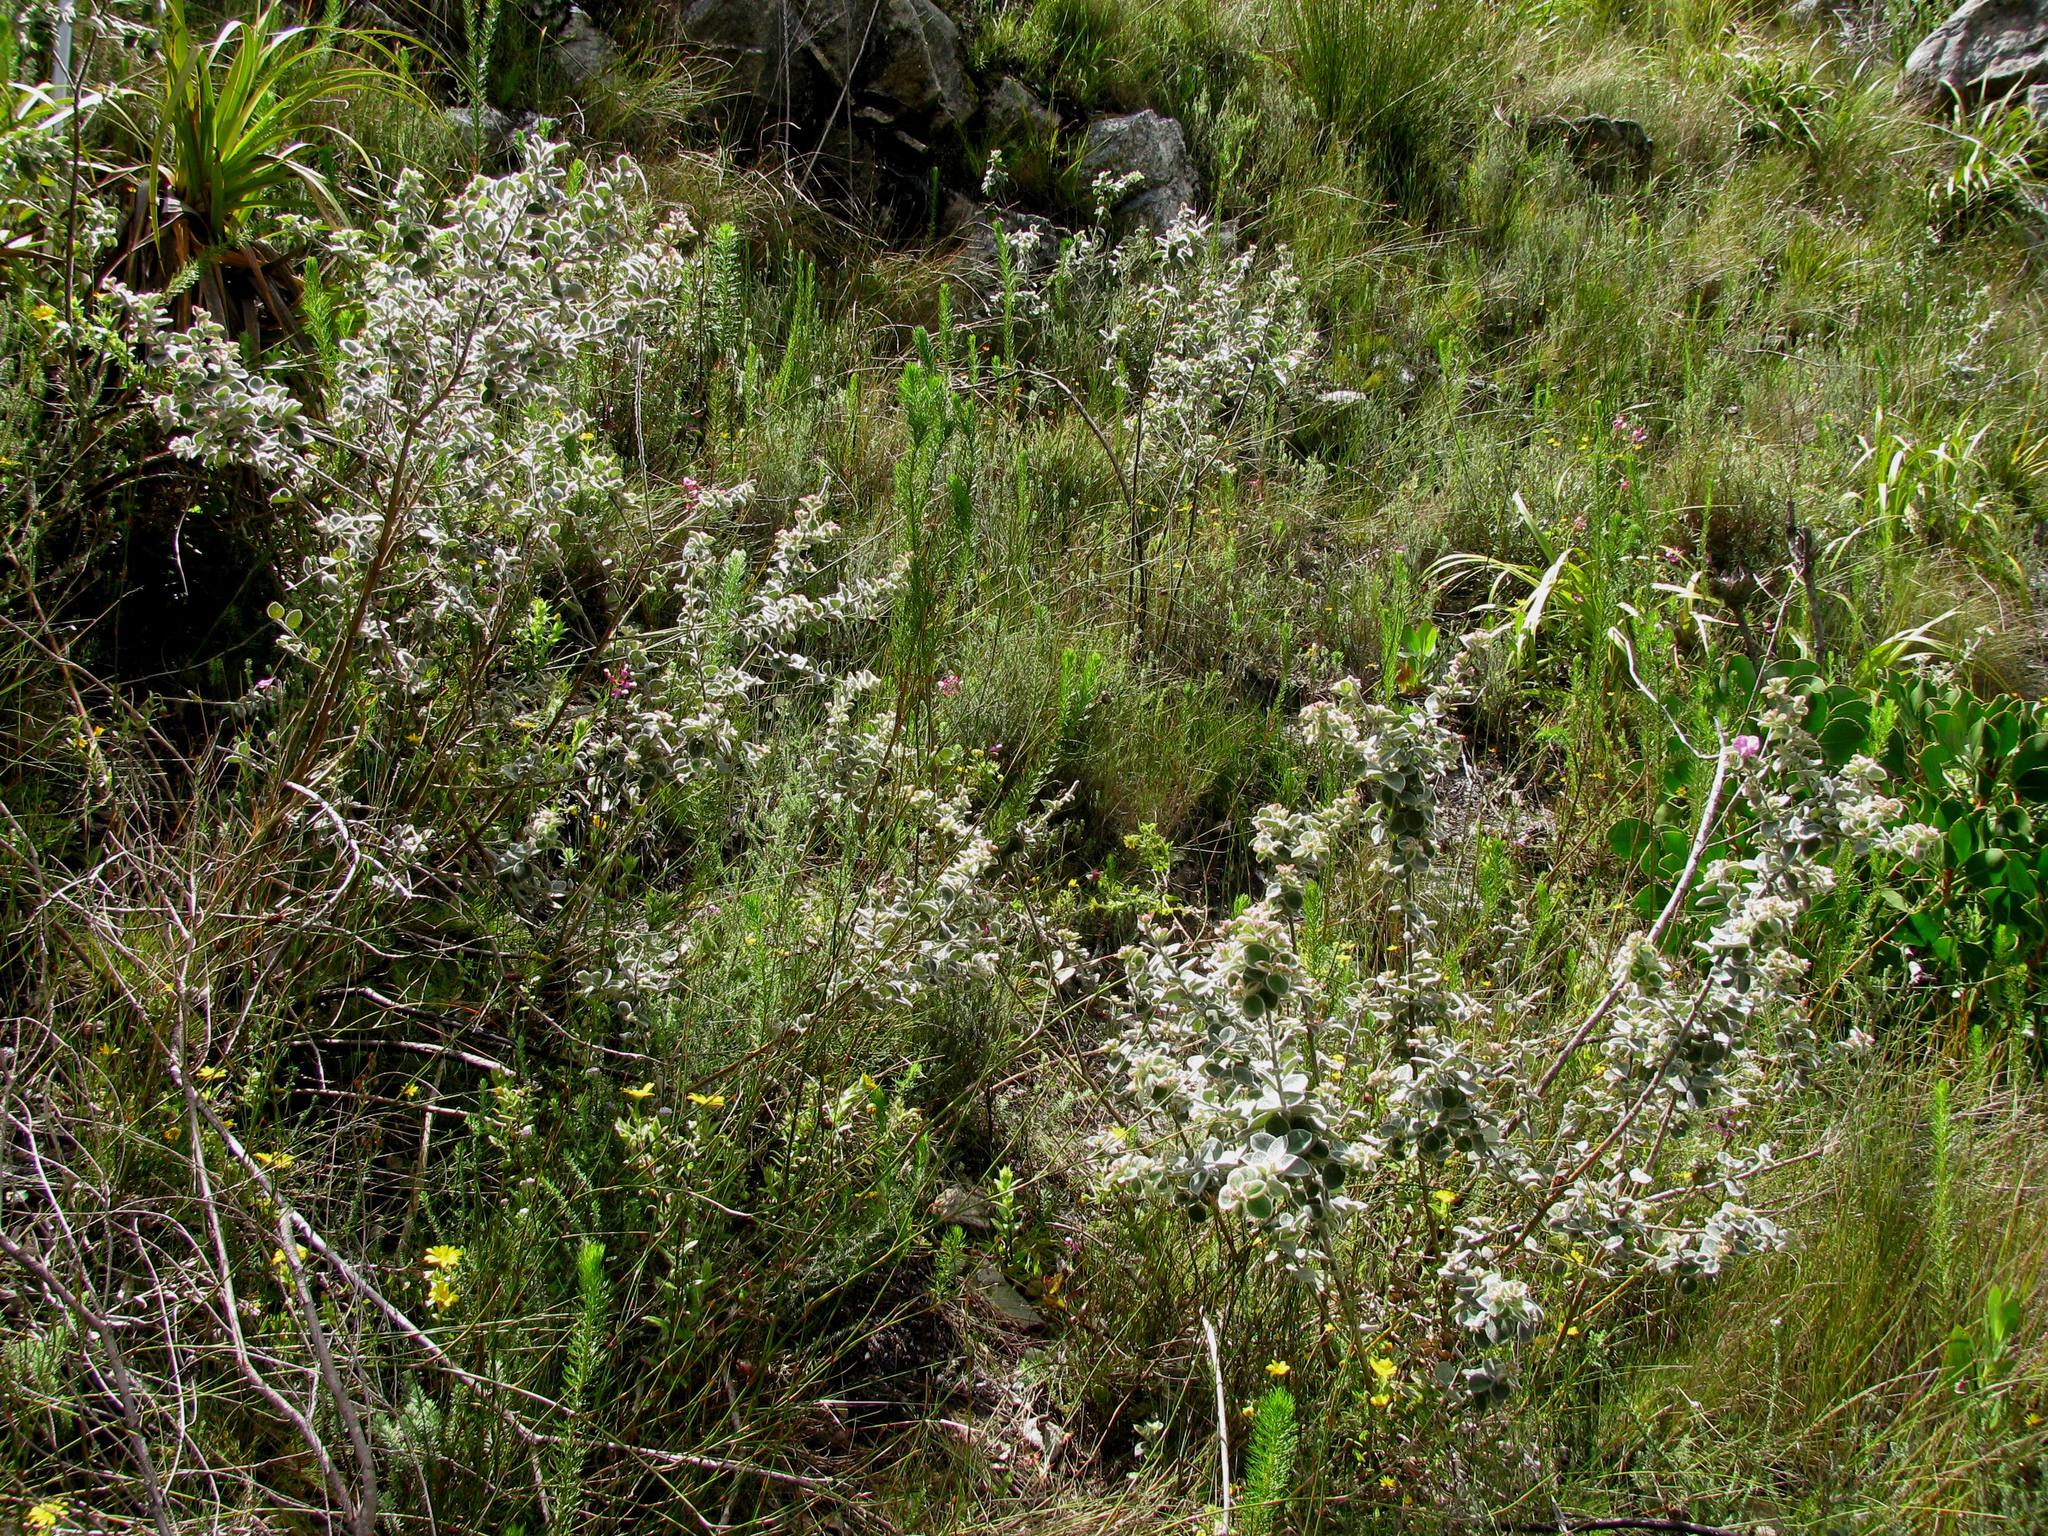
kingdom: Plantae
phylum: Tracheophyta
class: Magnoliopsida
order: Fabales
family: Fabaceae
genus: Podalyria
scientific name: Podalyria hirsuta
